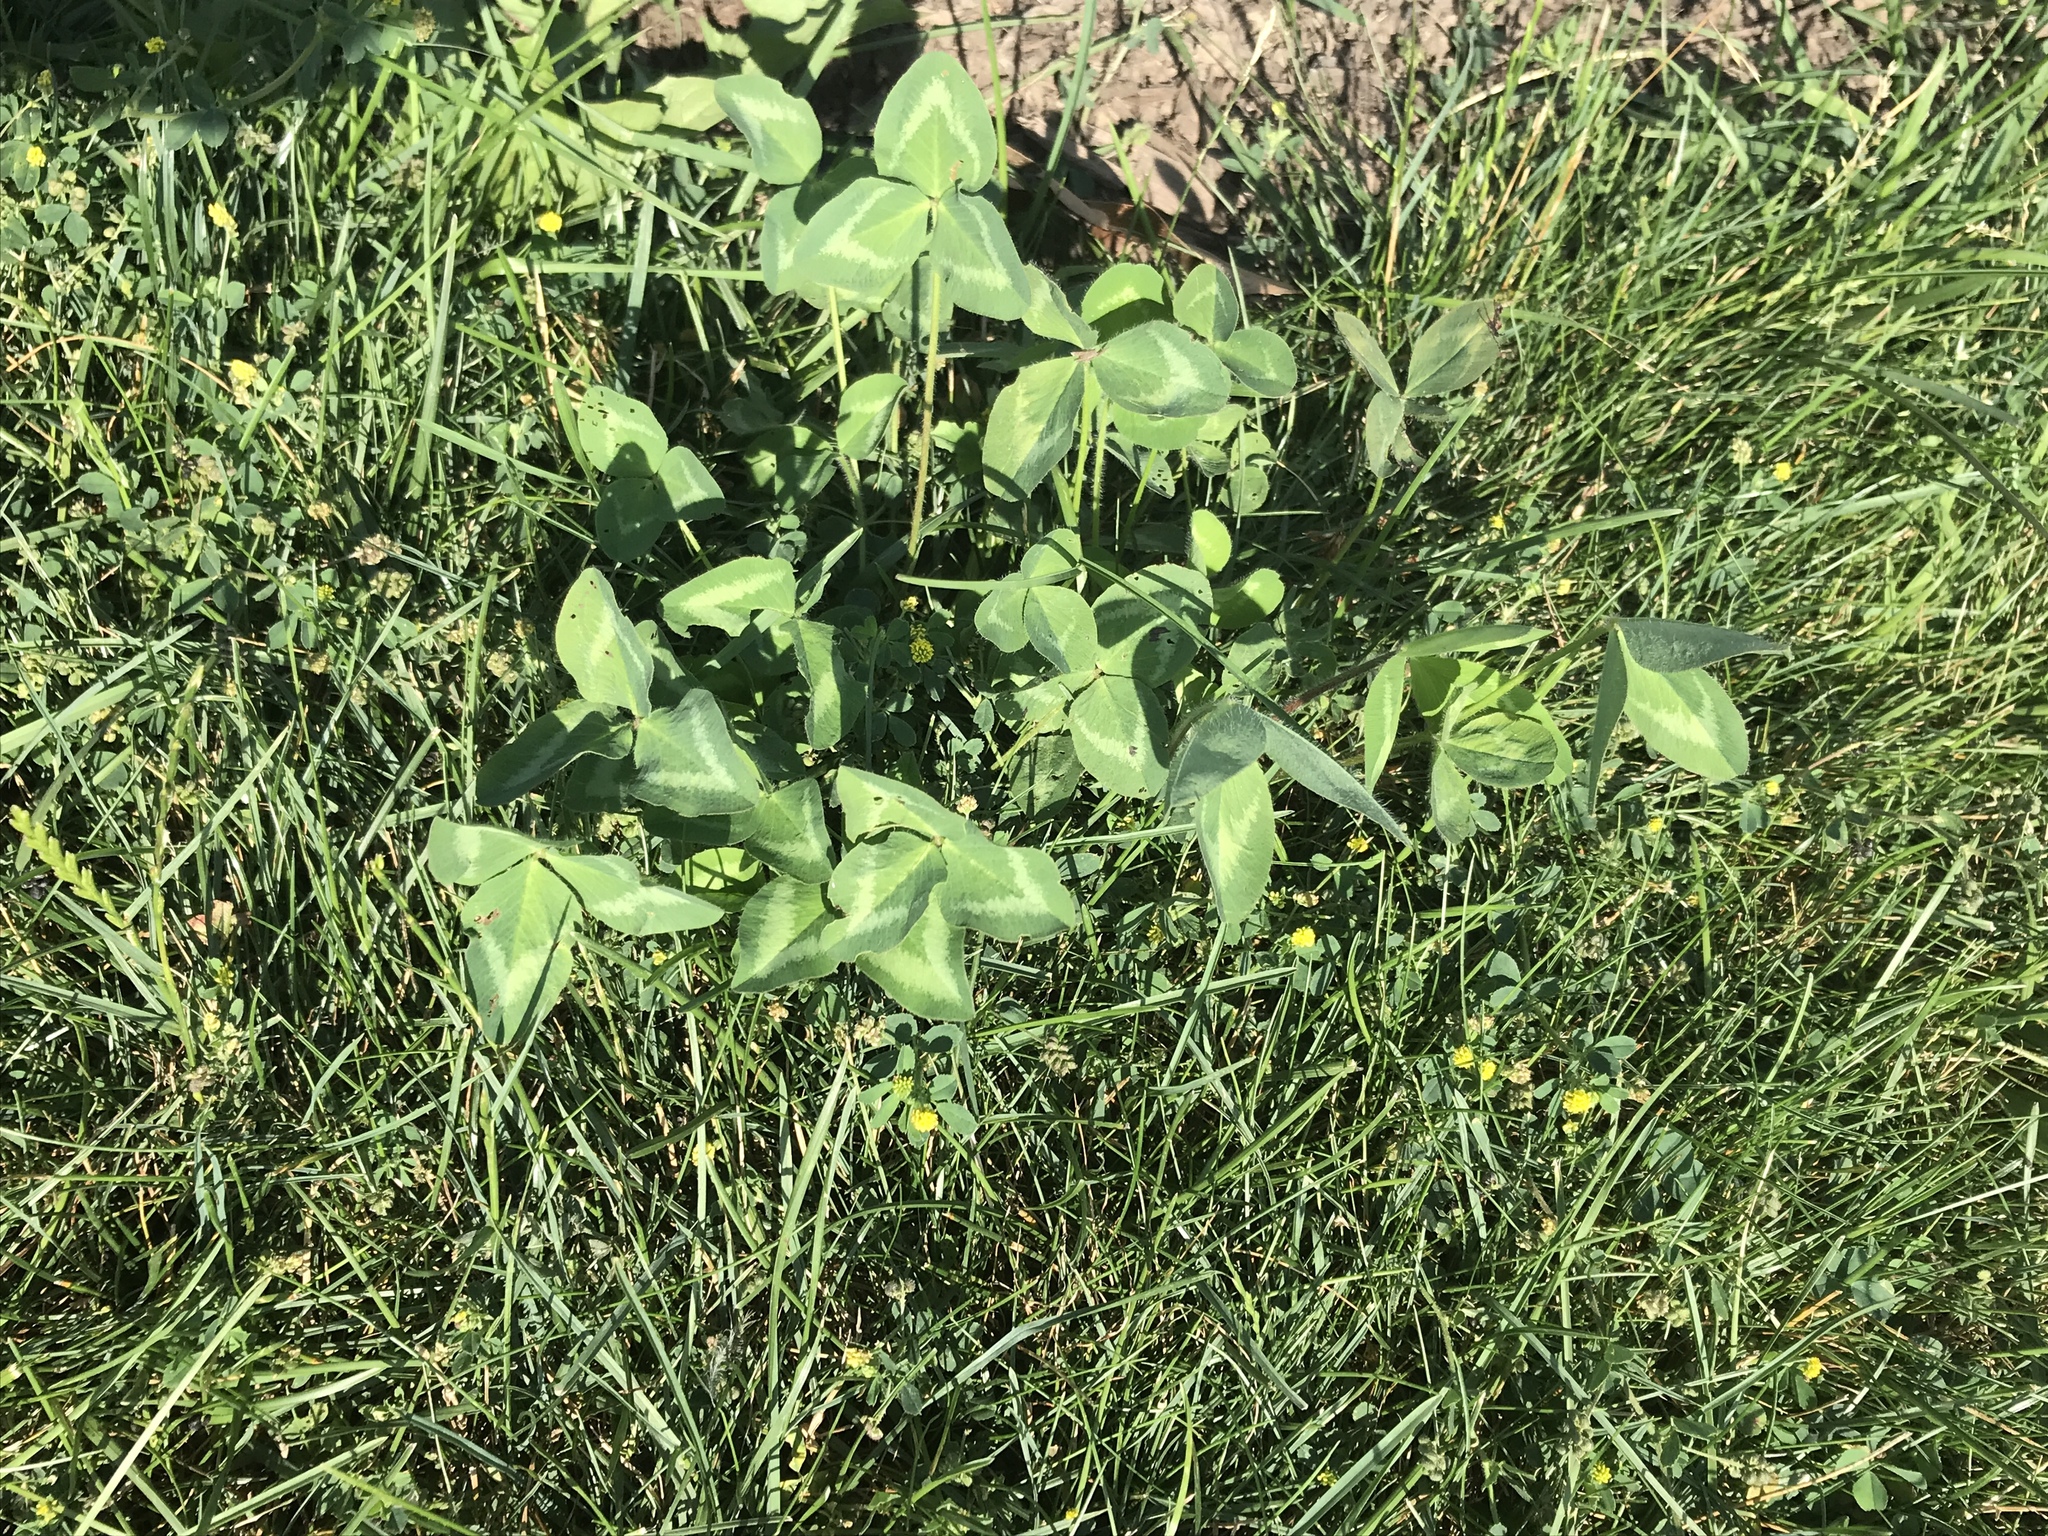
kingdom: Plantae
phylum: Tracheophyta
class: Magnoliopsida
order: Fabales
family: Fabaceae
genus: Trifolium
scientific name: Trifolium pratense
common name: Red clover
